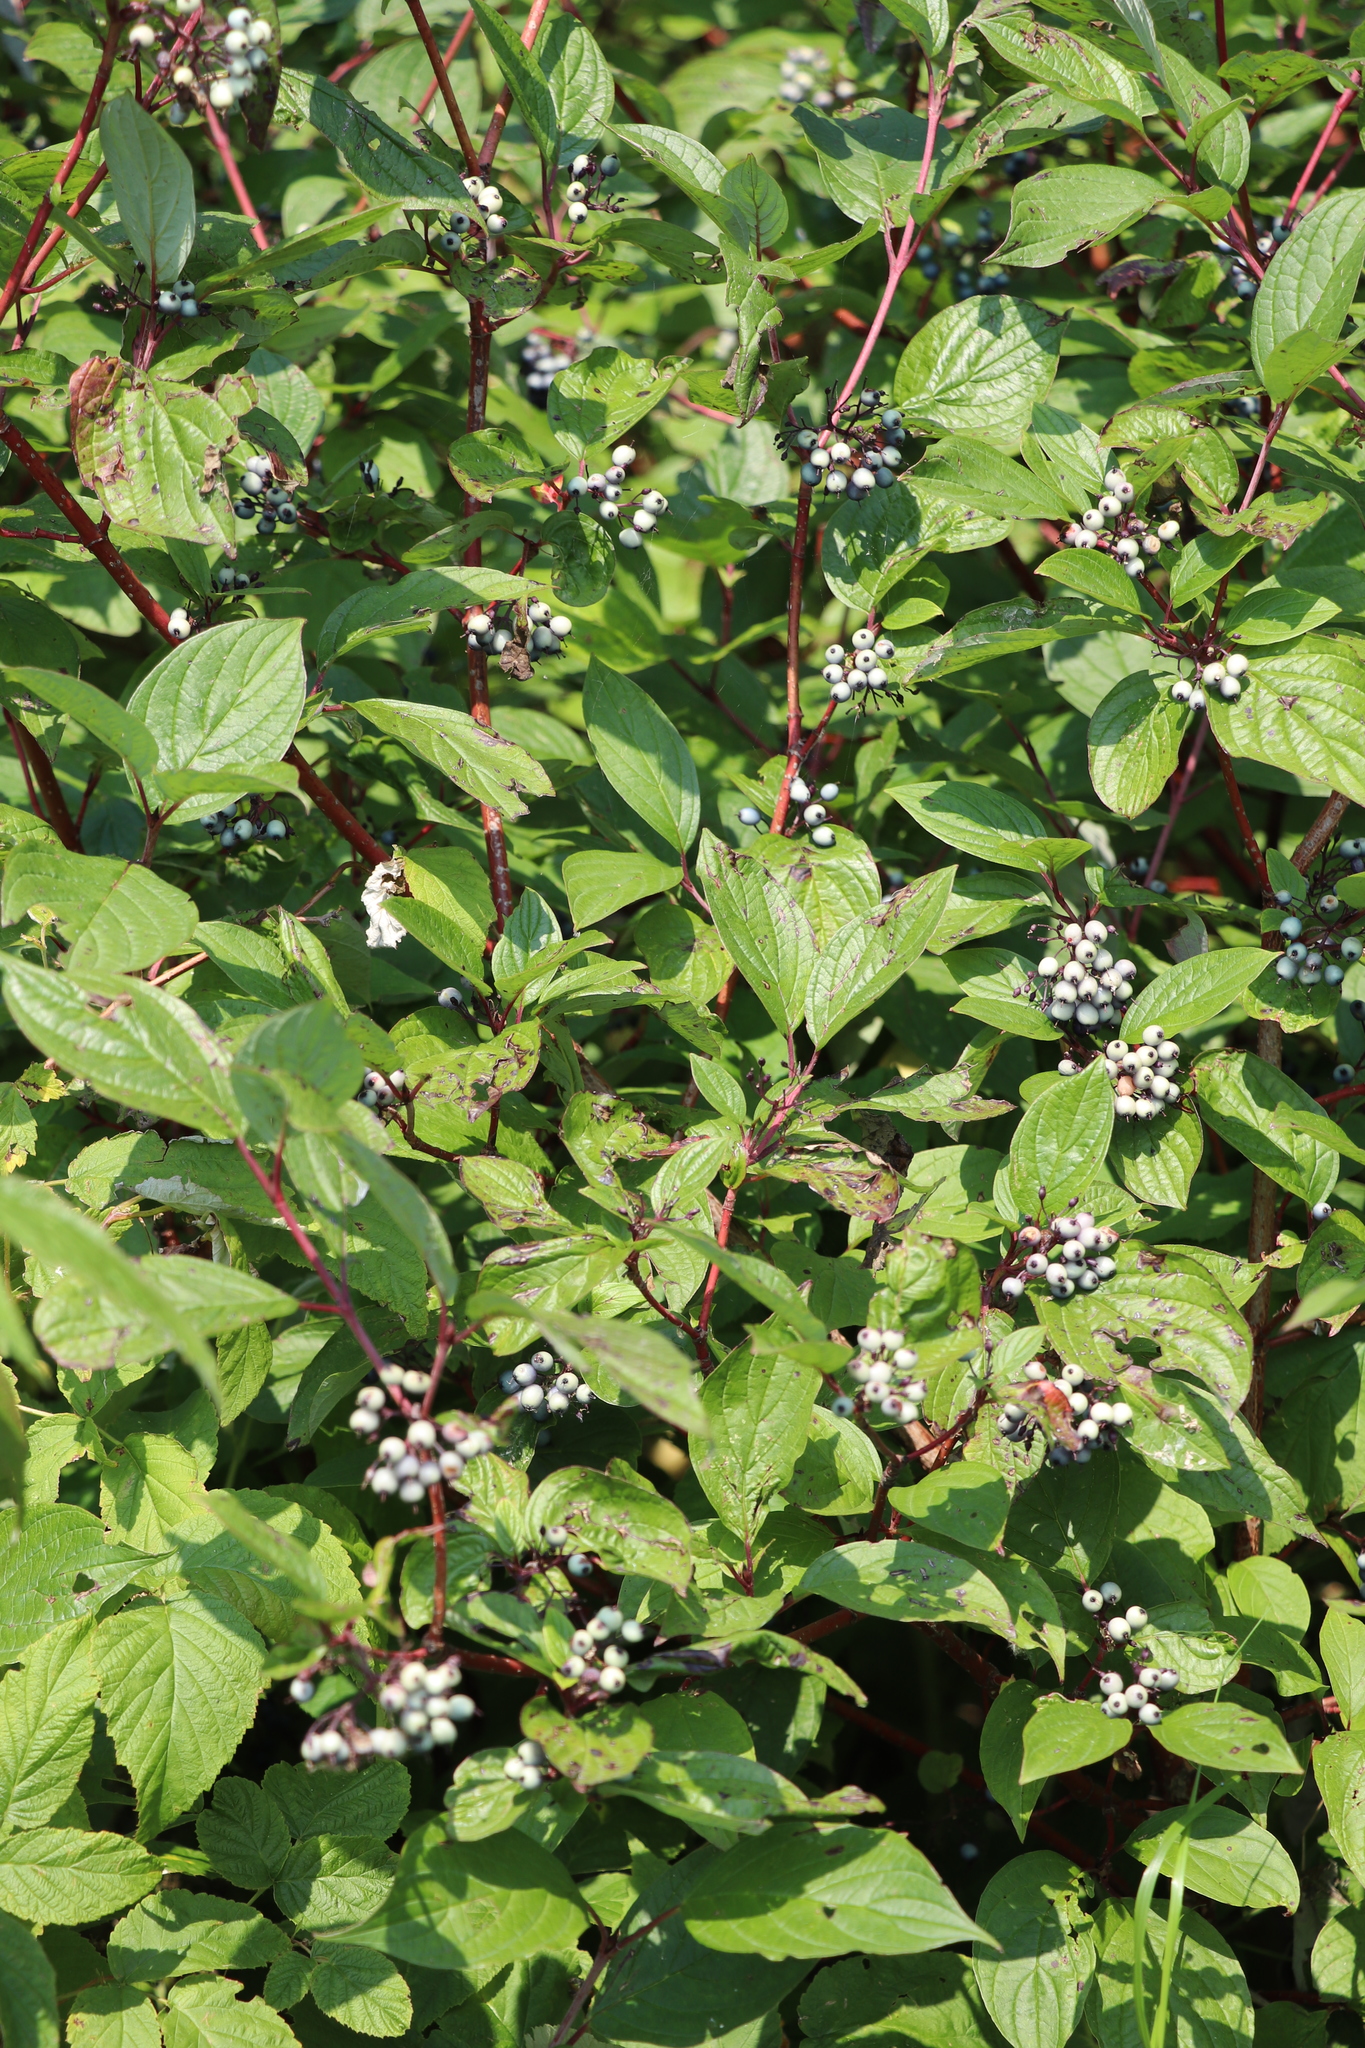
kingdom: Plantae
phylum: Tracheophyta
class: Magnoliopsida
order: Cornales
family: Cornaceae
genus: Cornus
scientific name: Cornus alba
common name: White dogwood
